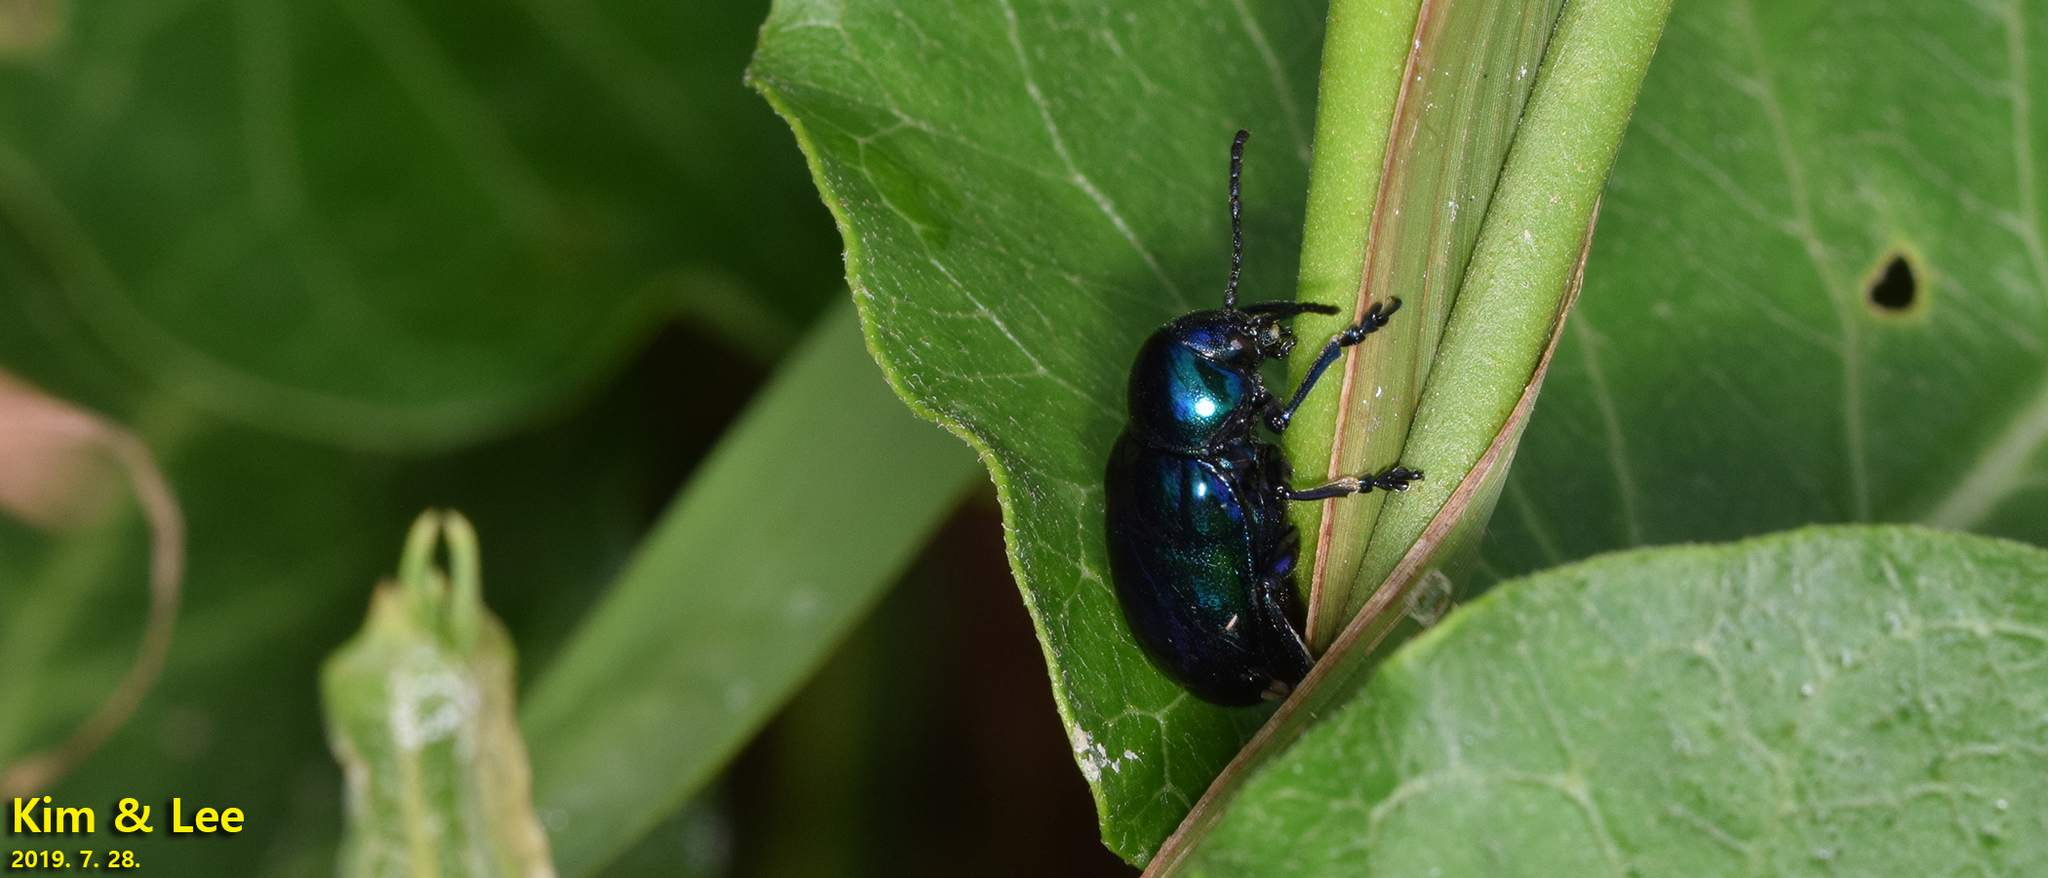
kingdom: Animalia
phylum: Arthropoda
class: Insecta
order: Coleoptera
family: Chrysomelidae
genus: Chrysochus
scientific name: Chrysochus chinensis
